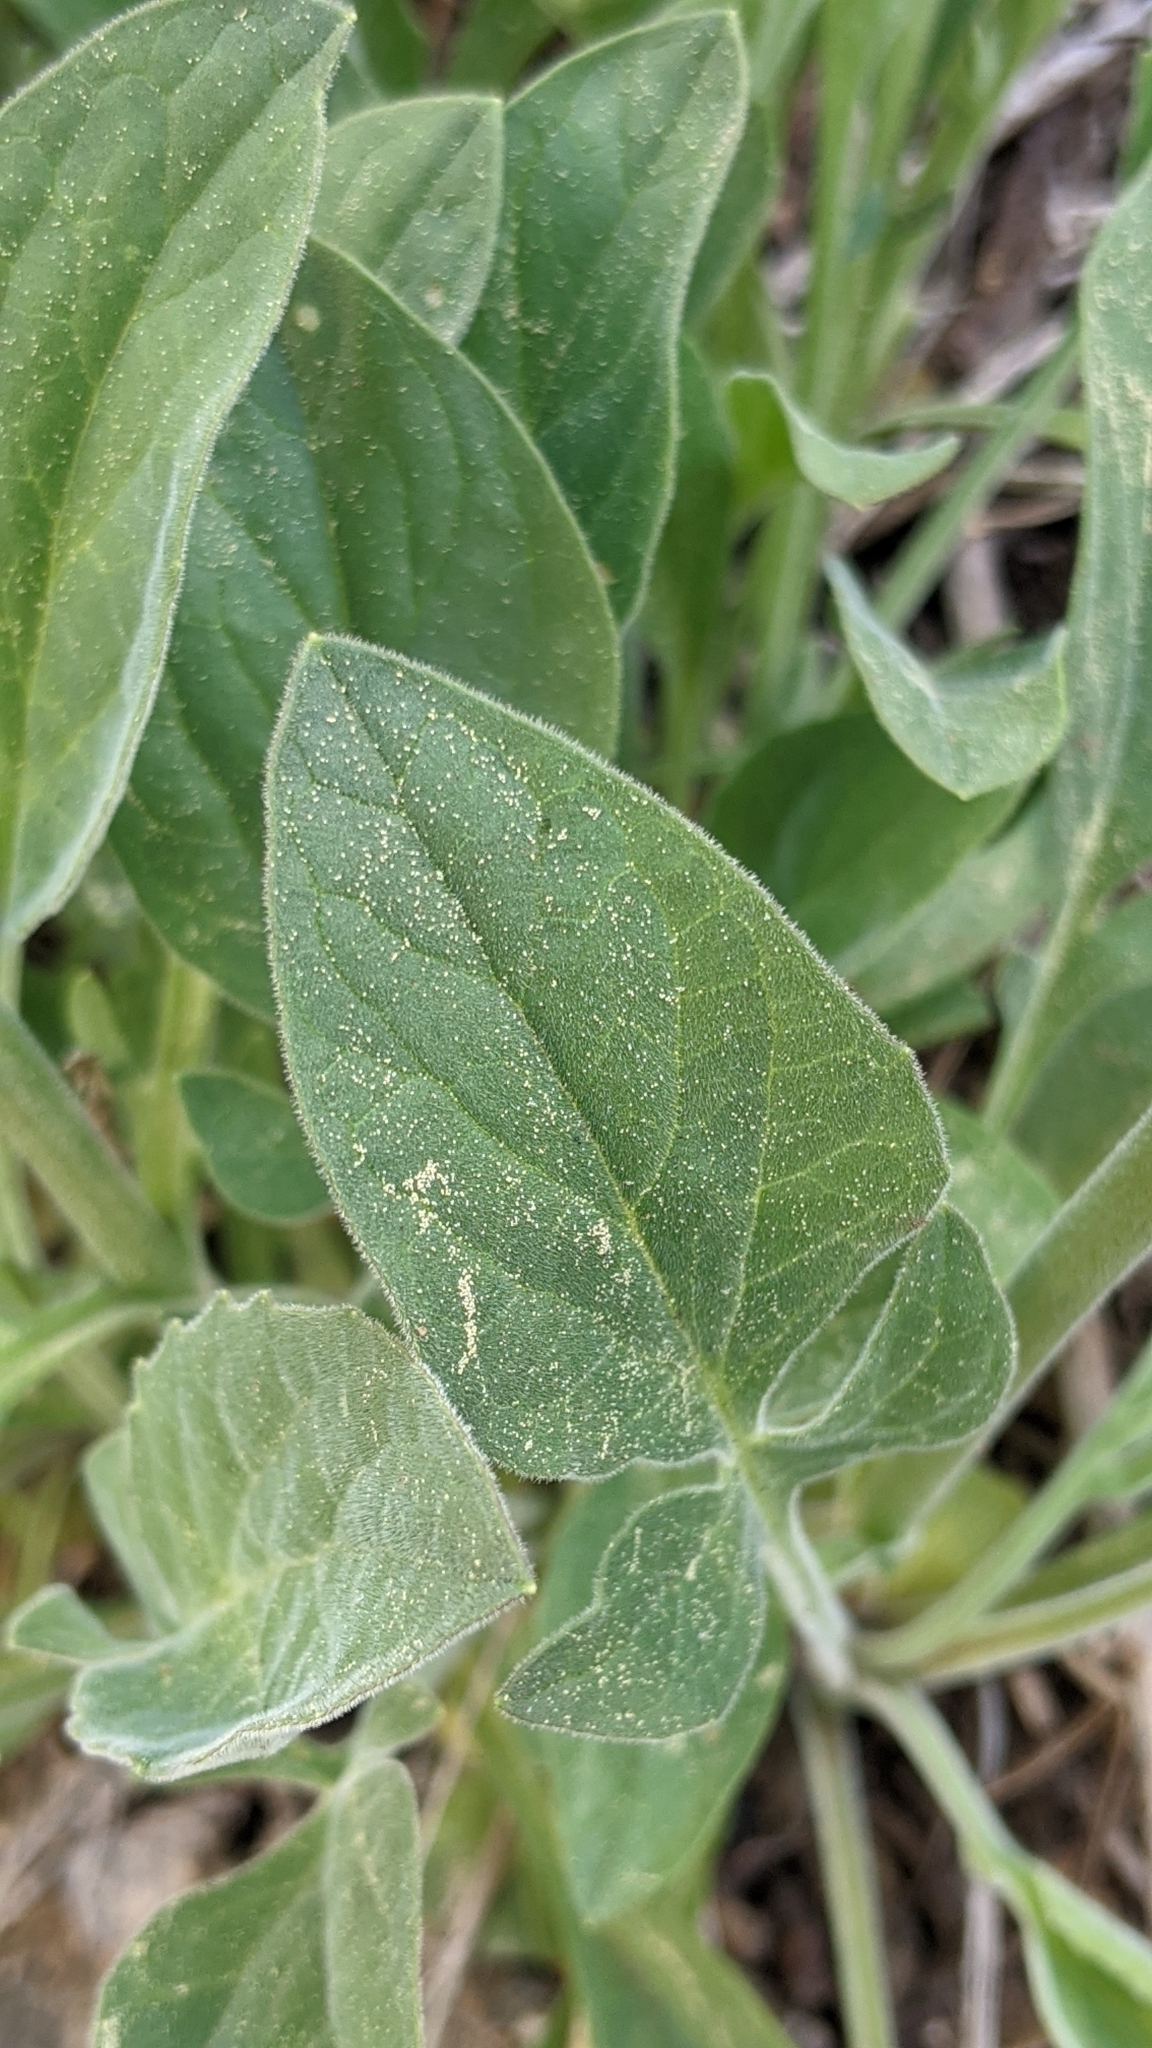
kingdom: Plantae
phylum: Tracheophyta
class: Magnoliopsida
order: Dipsacales
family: Caprifoliaceae
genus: Valeriana
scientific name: Valeriana californica
